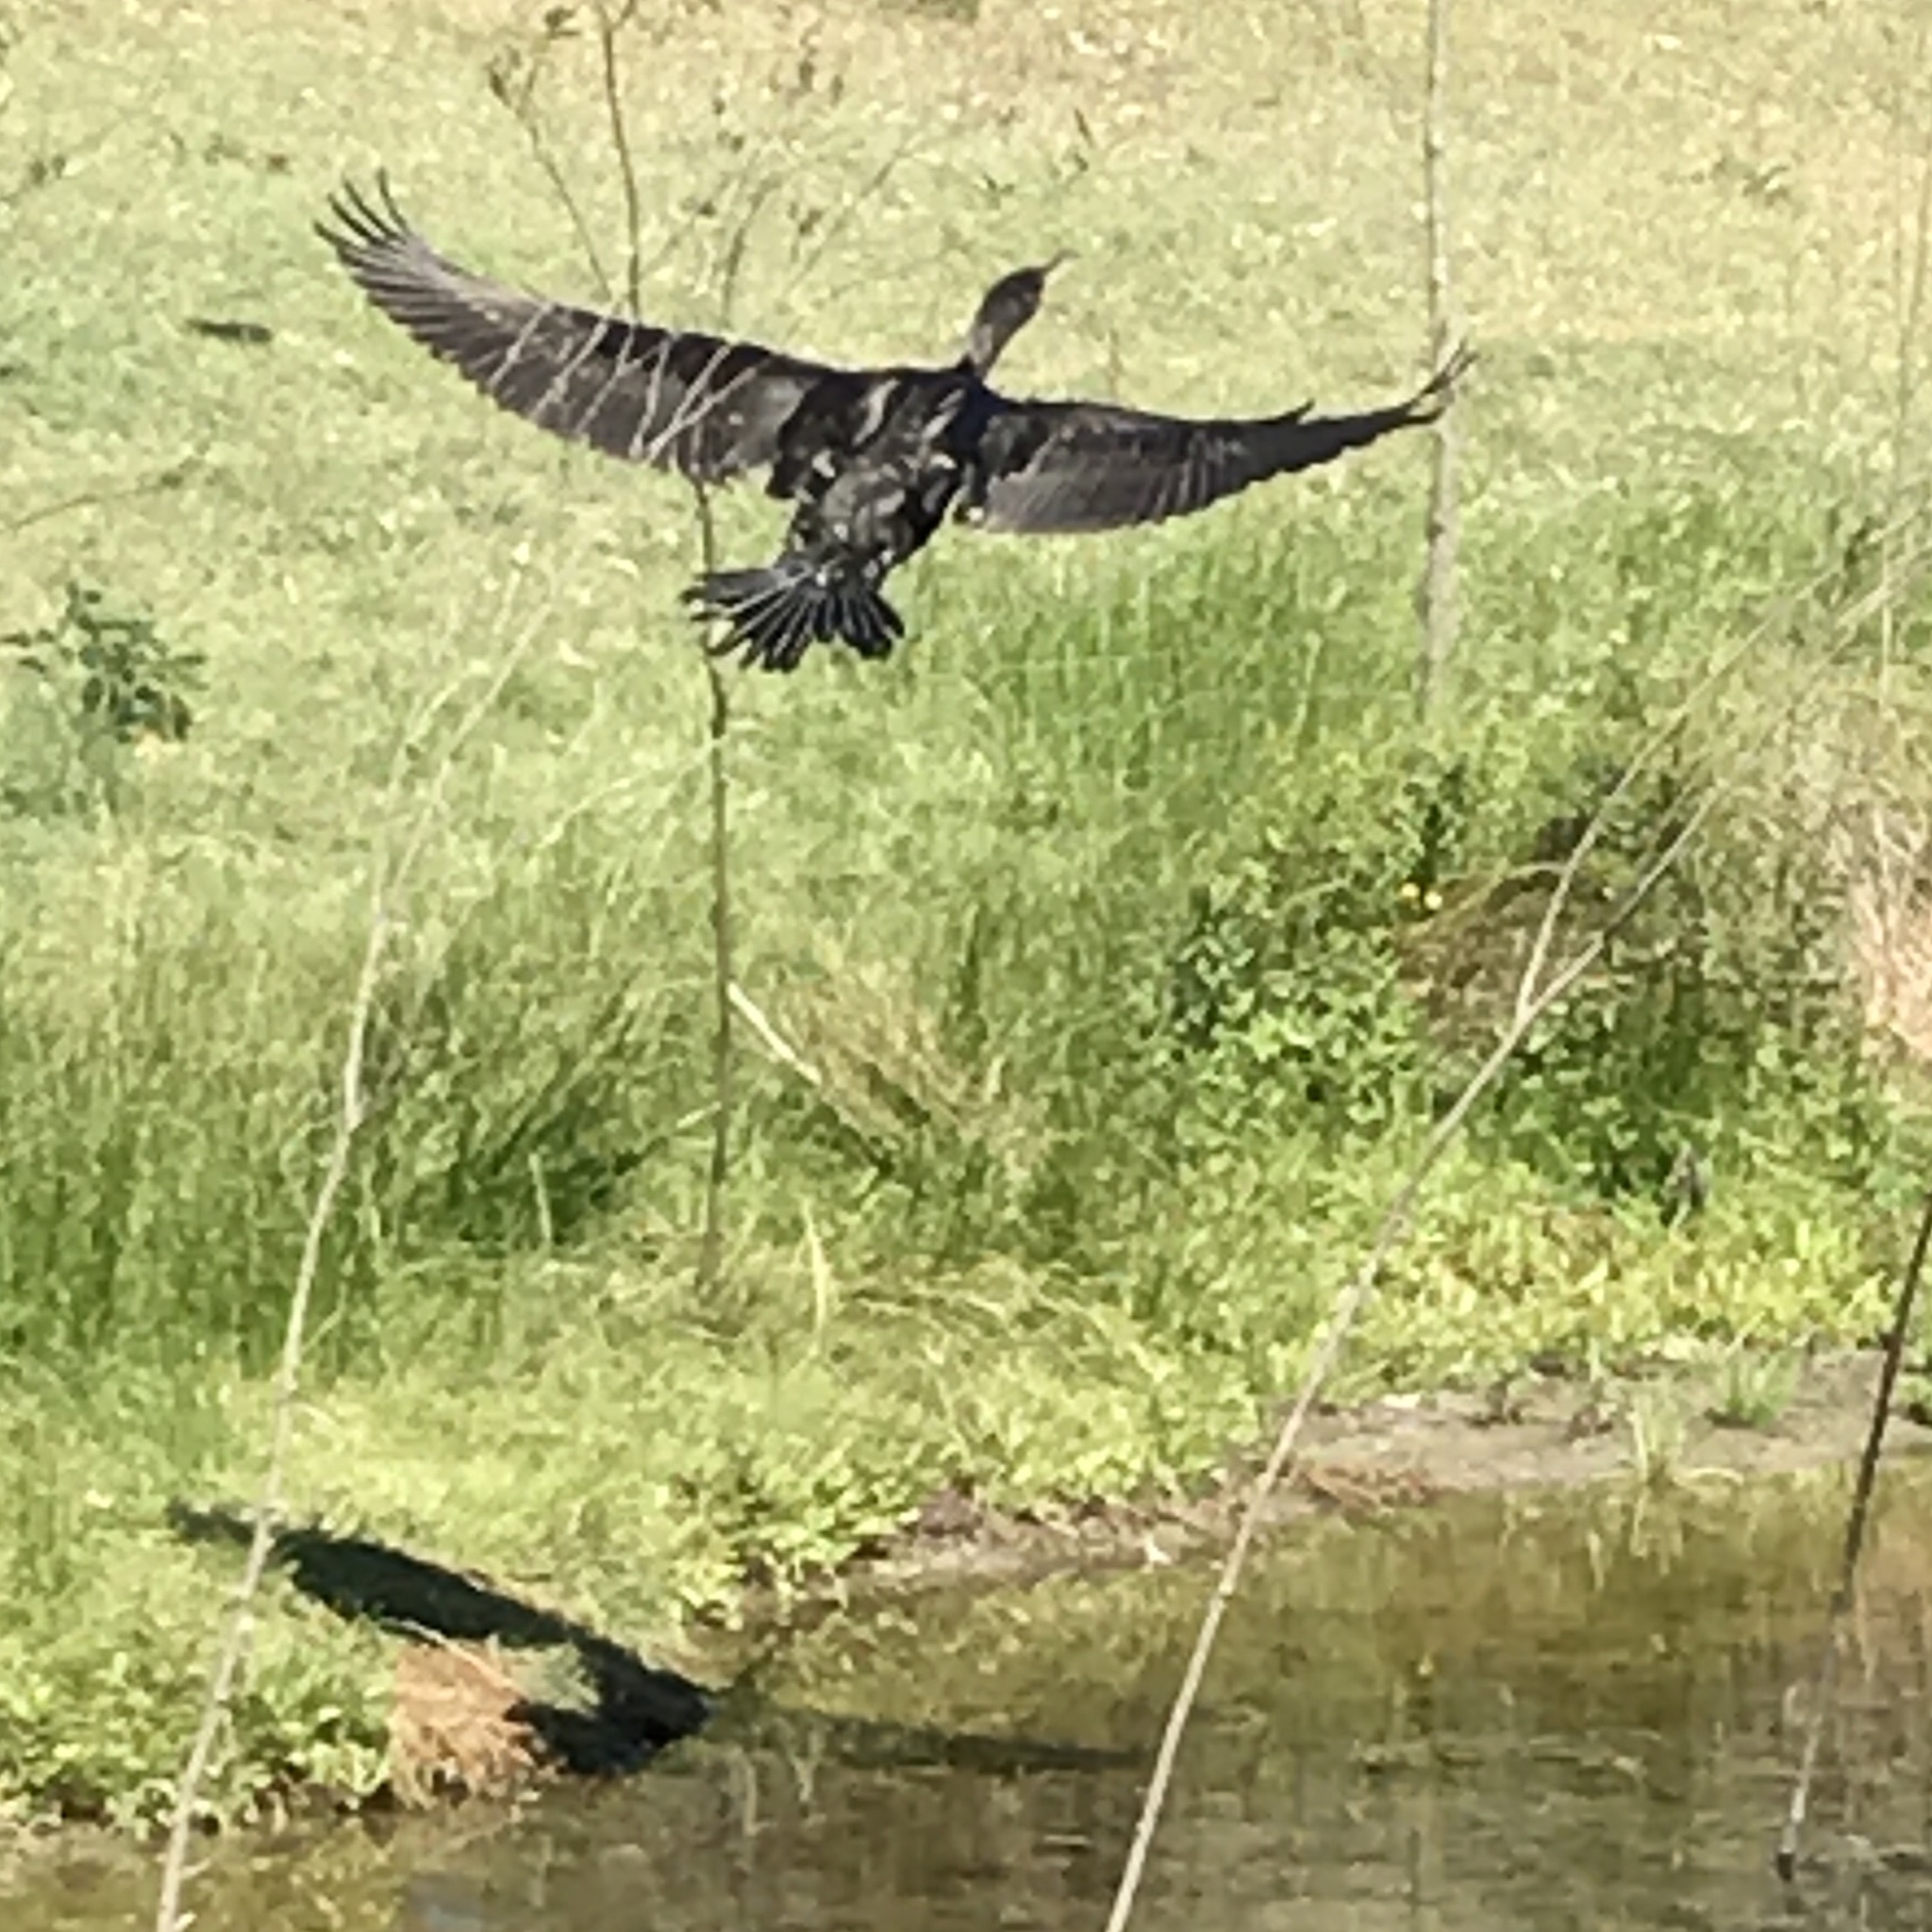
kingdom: Animalia
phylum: Chordata
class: Aves
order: Suliformes
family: Phalacrocoracidae
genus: Phalacrocorax
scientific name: Phalacrocorax carbo
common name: Great cormorant
